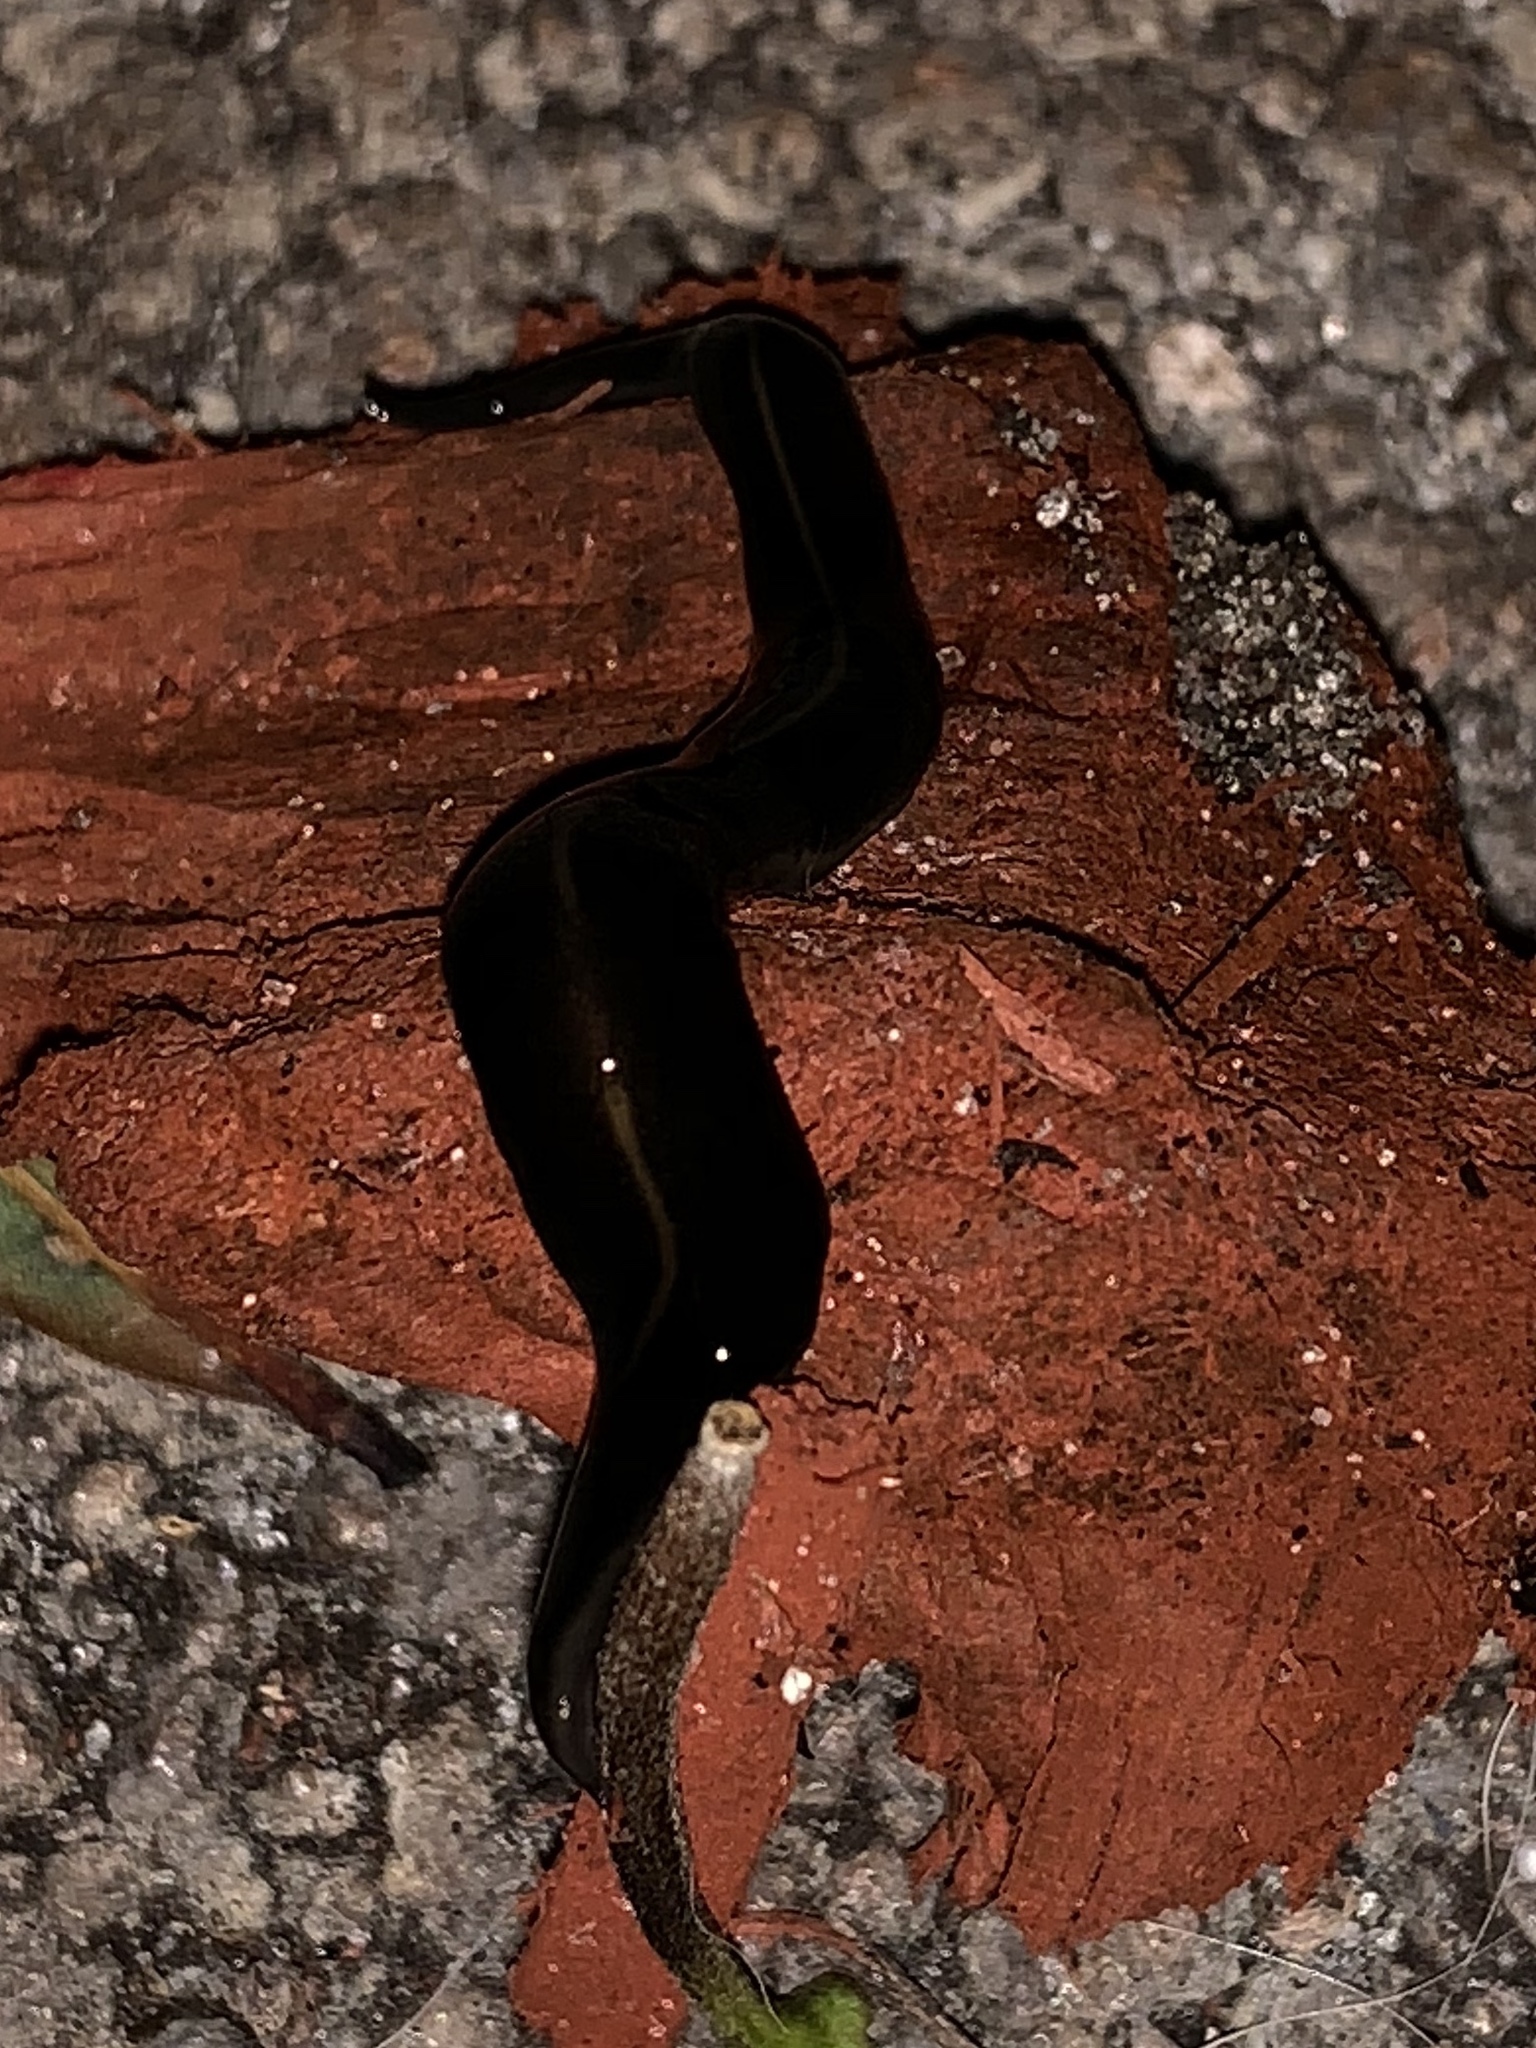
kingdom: Animalia
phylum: Platyhelminthes
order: Tricladida
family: Geoplanidae
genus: Platydemus
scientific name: Platydemus manokwari
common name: New guinea flatworm
